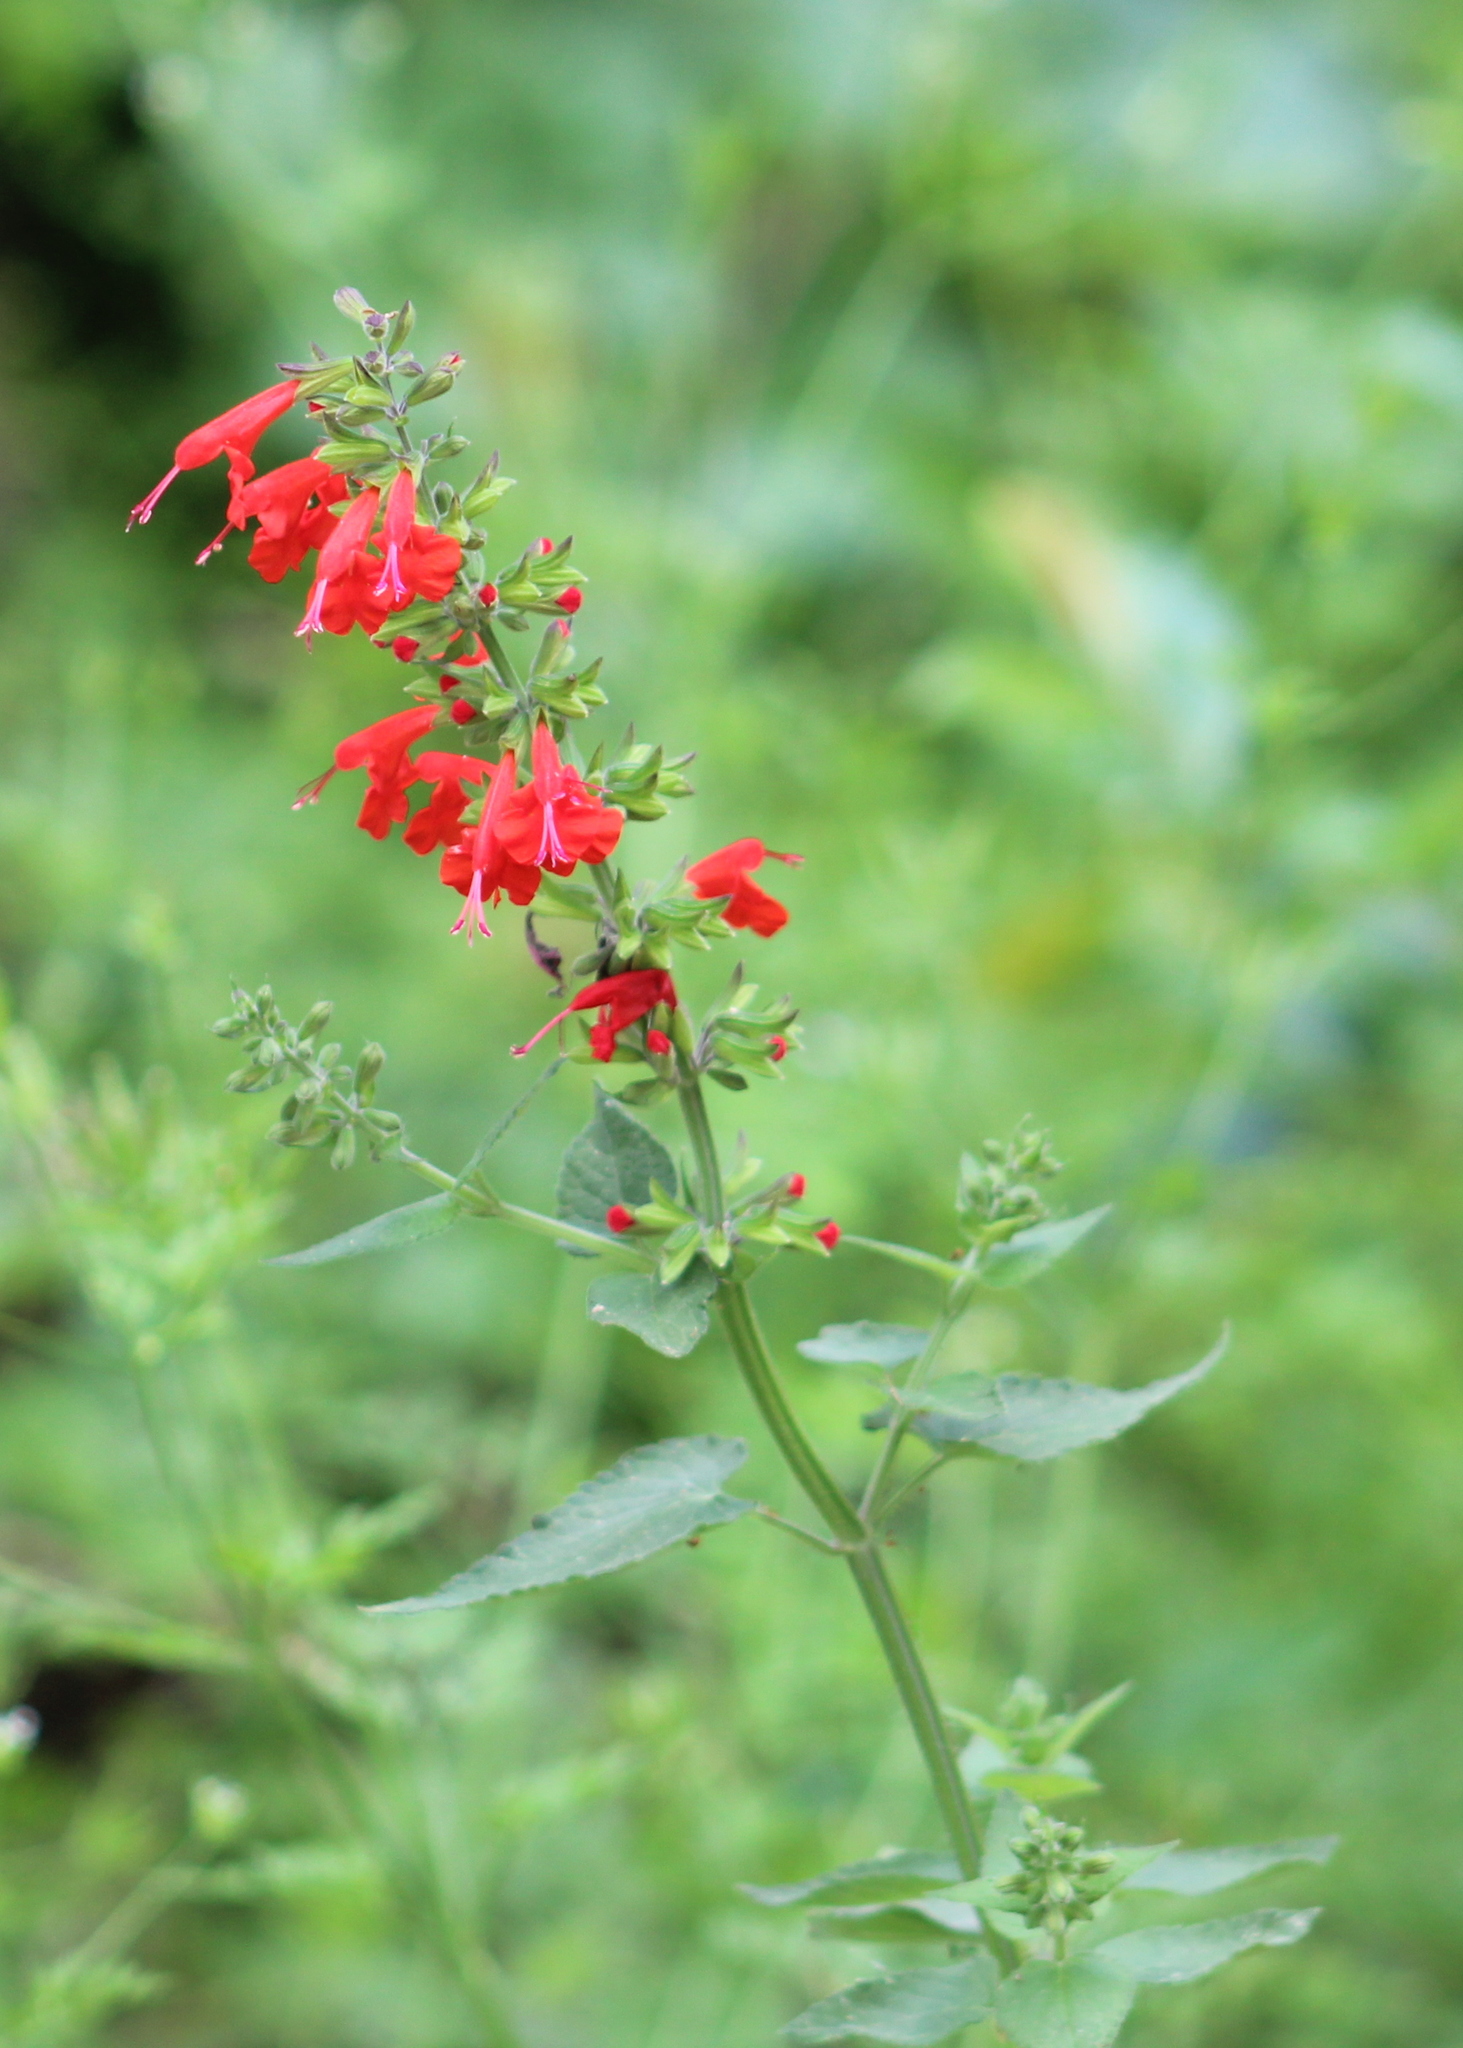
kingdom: Plantae
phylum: Tracheophyta
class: Magnoliopsida
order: Lamiales
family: Lamiaceae
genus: Salvia
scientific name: Salvia coccinea
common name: Blood sage
